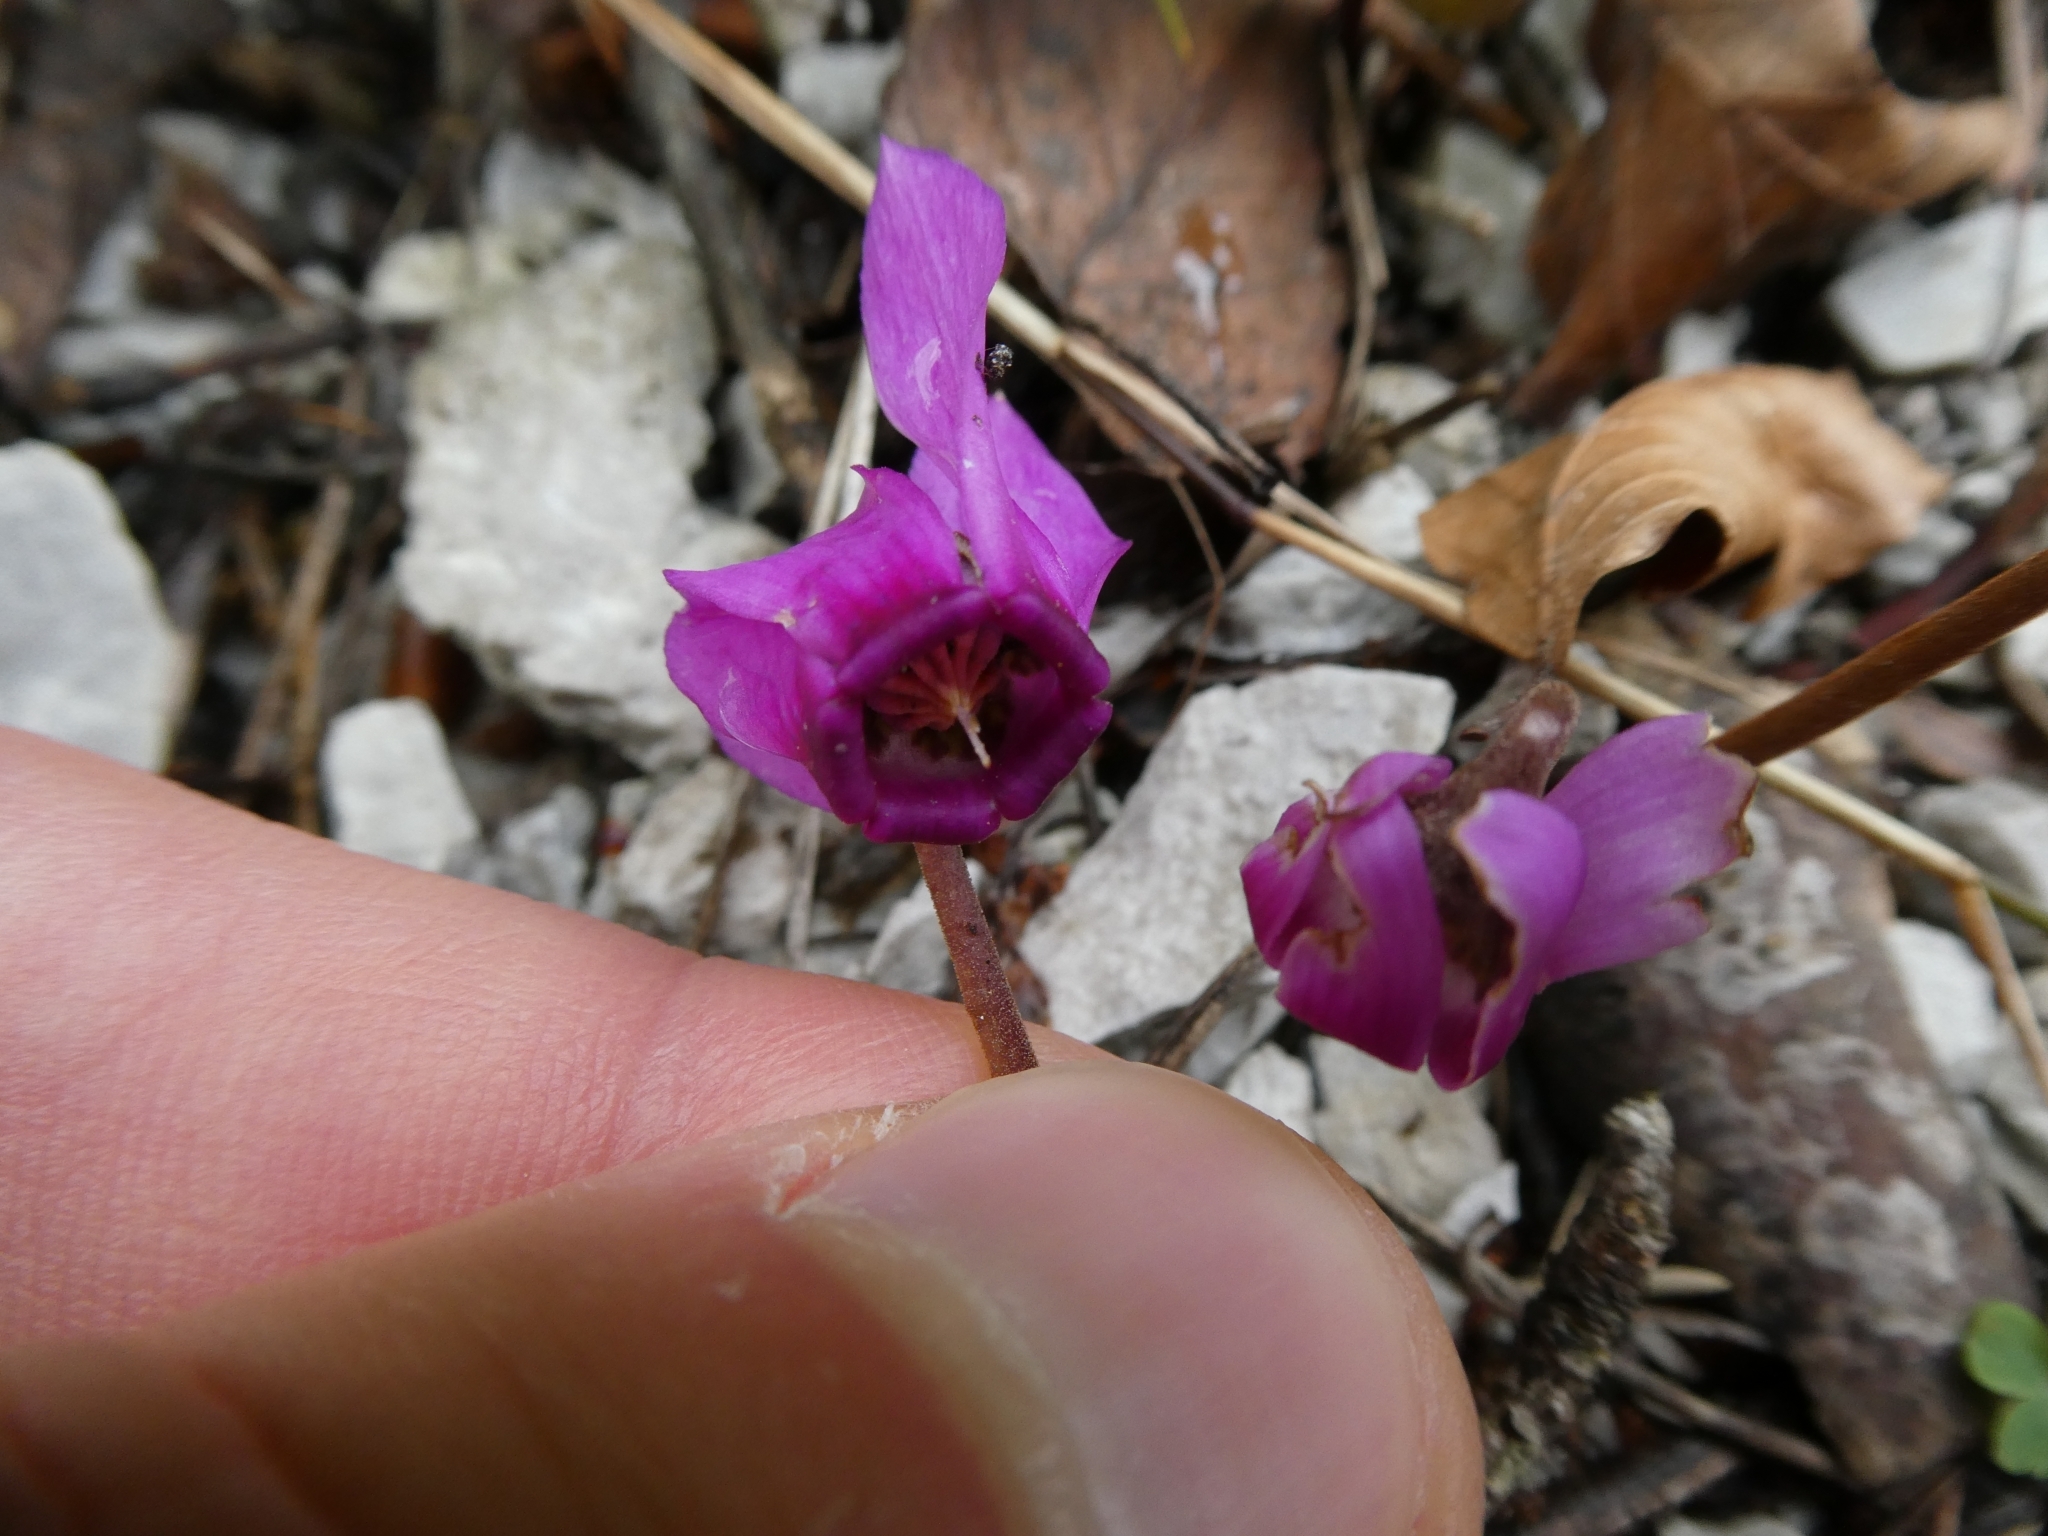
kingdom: Plantae
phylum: Tracheophyta
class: Magnoliopsida
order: Ericales
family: Primulaceae
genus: Cyclamen
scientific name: Cyclamen purpurascens
